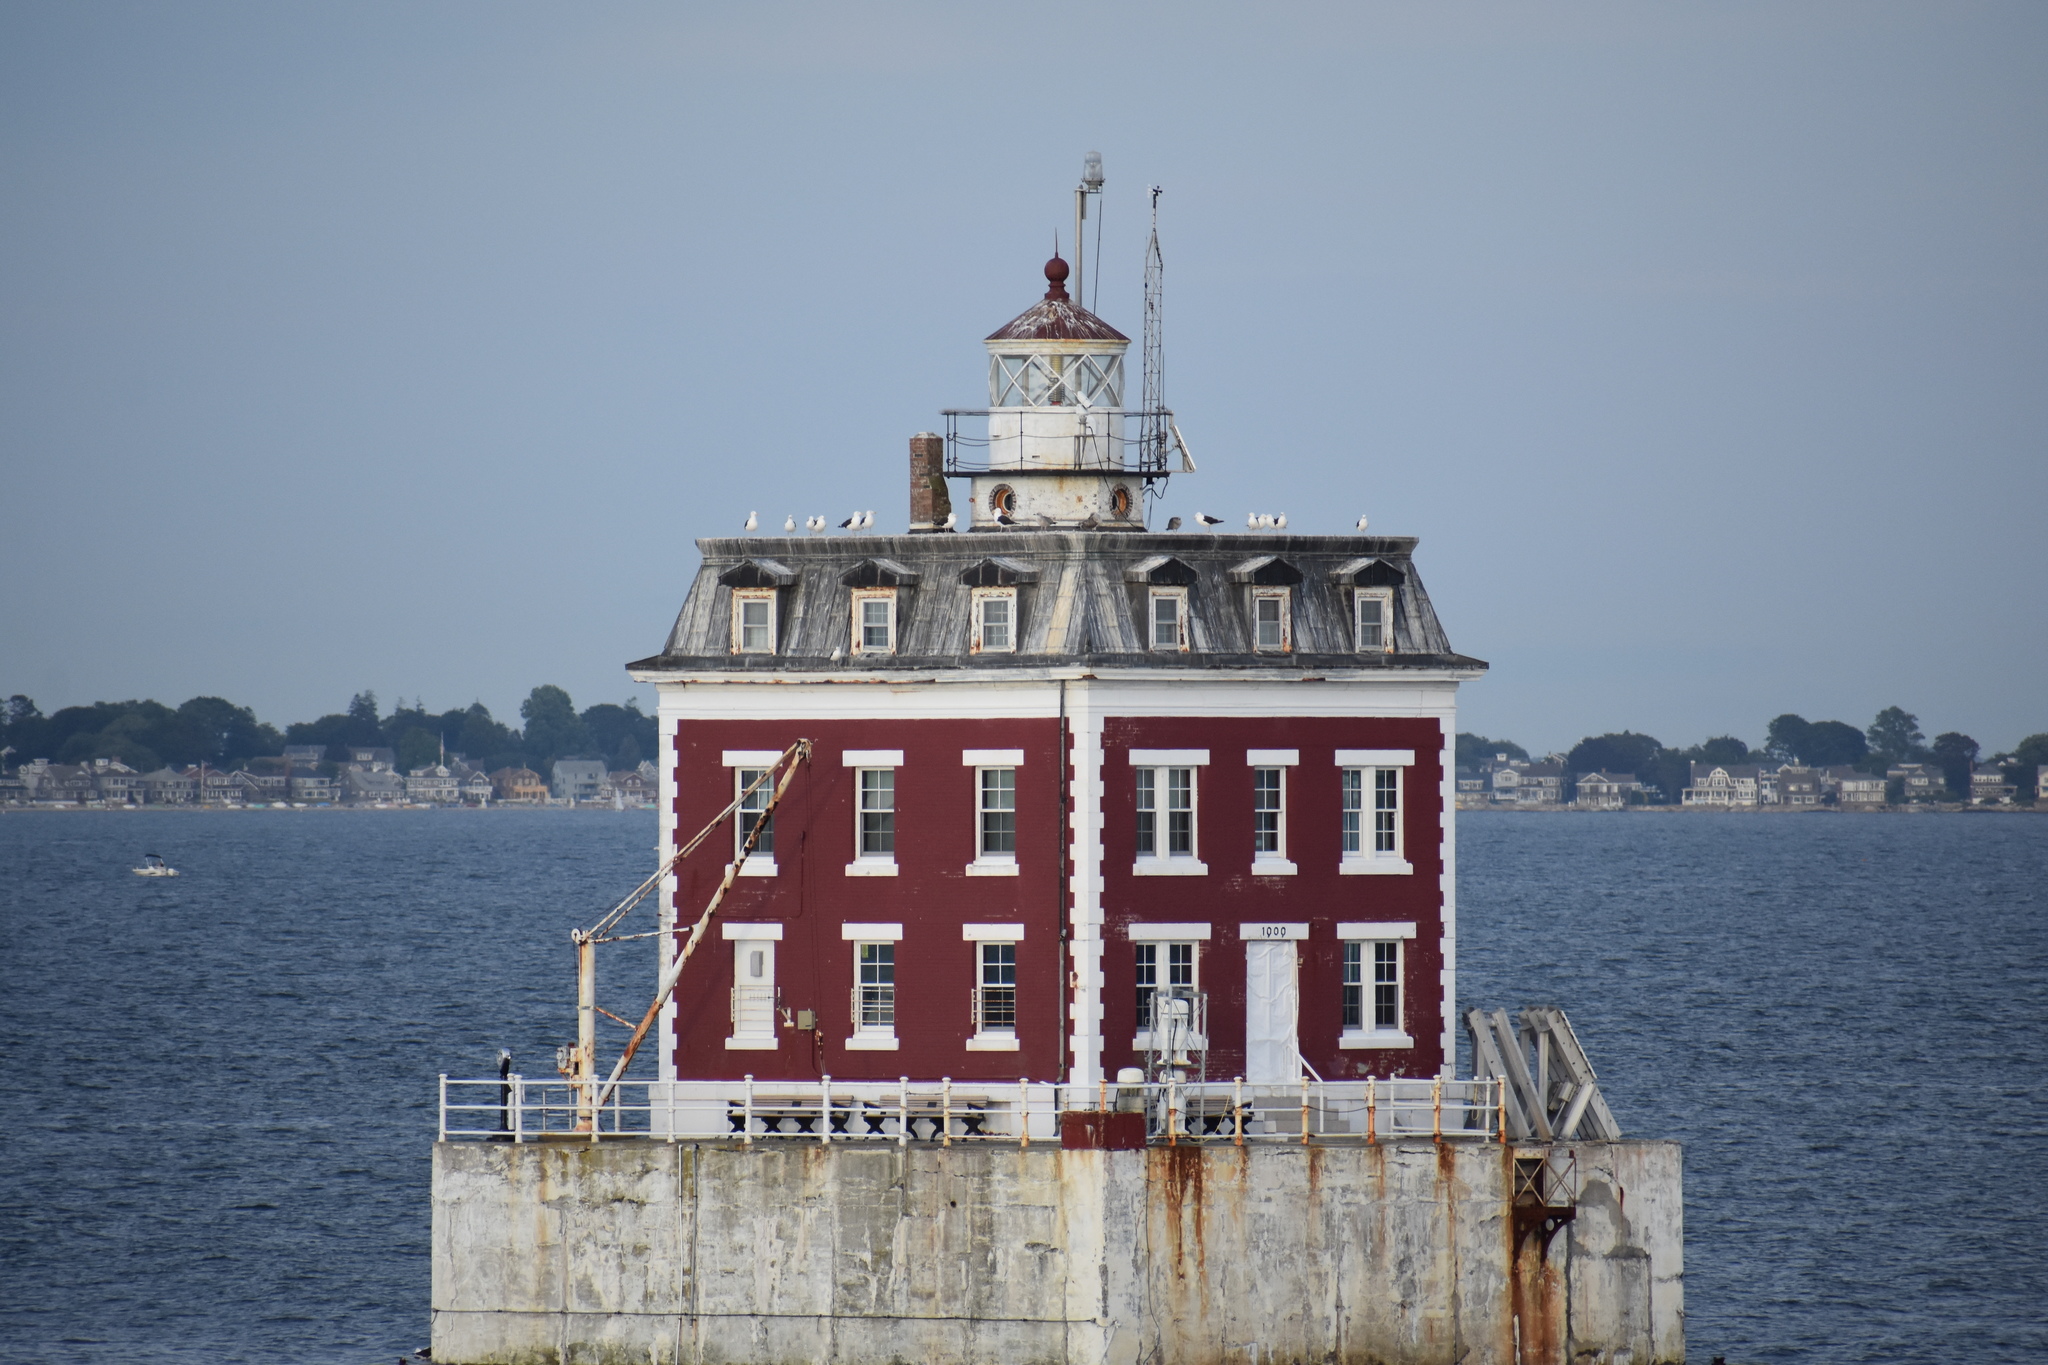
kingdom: Animalia
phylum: Chordata
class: Aves
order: Charadriiformes
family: Laridae
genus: Larus
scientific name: Larus marinus
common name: Great black-backed gull
